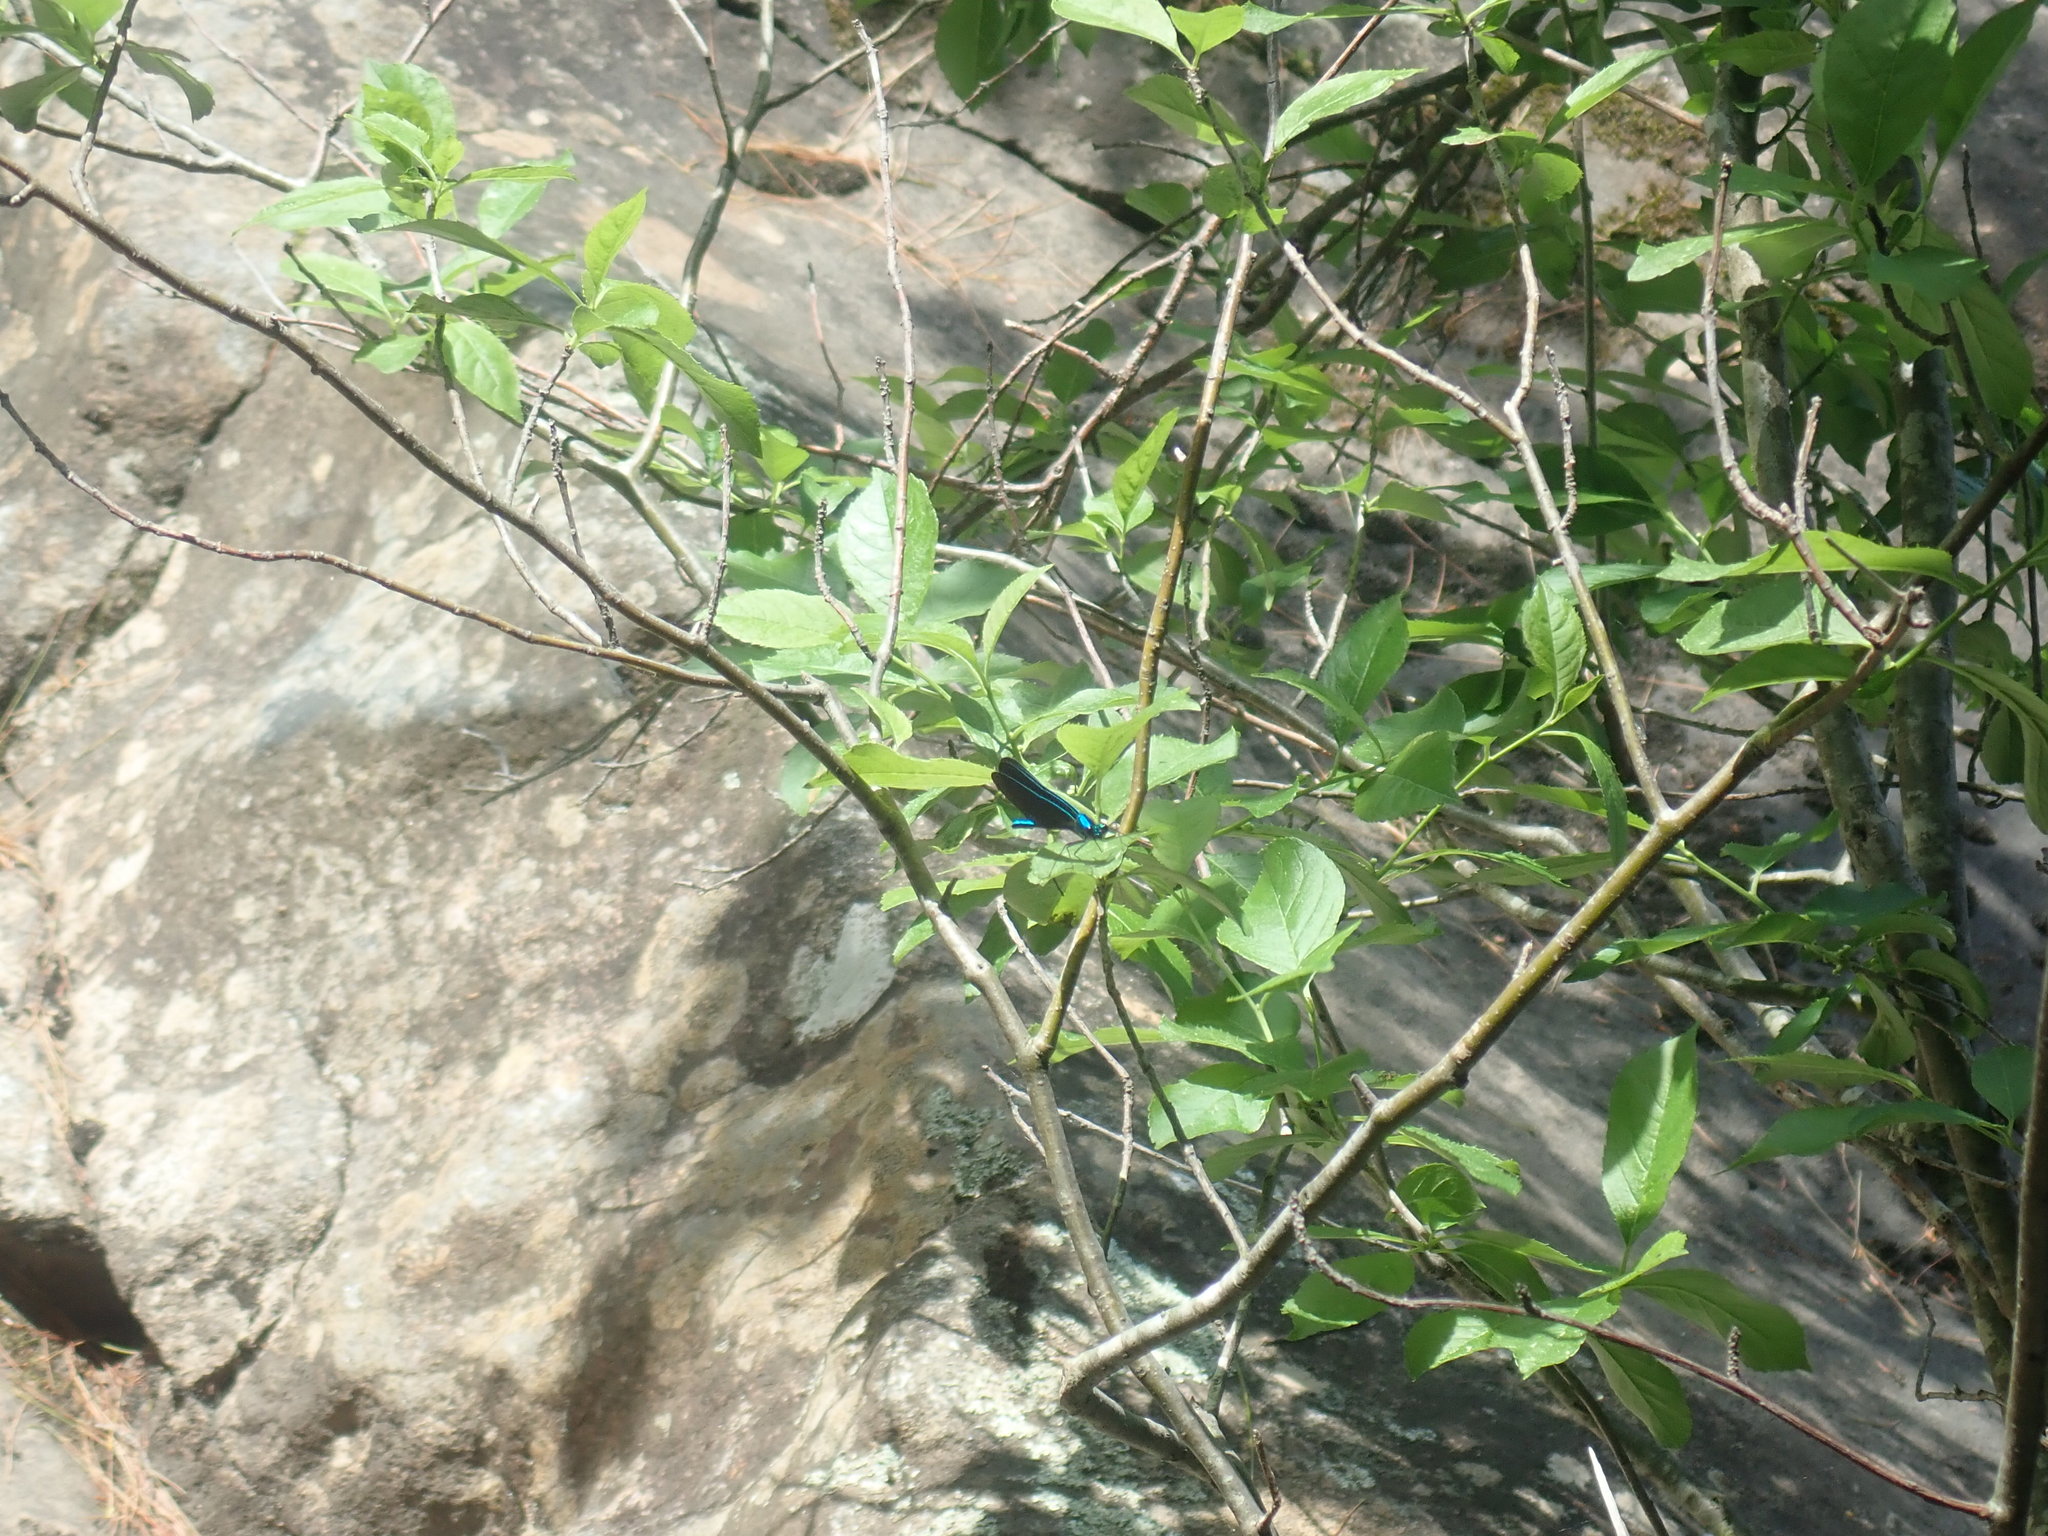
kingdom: Animalia
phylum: Arthropoda
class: Insecta
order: Odonata
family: Calopterygidae
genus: Calopteryx
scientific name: Calopteryx maculata
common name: Ebony jewelwing
